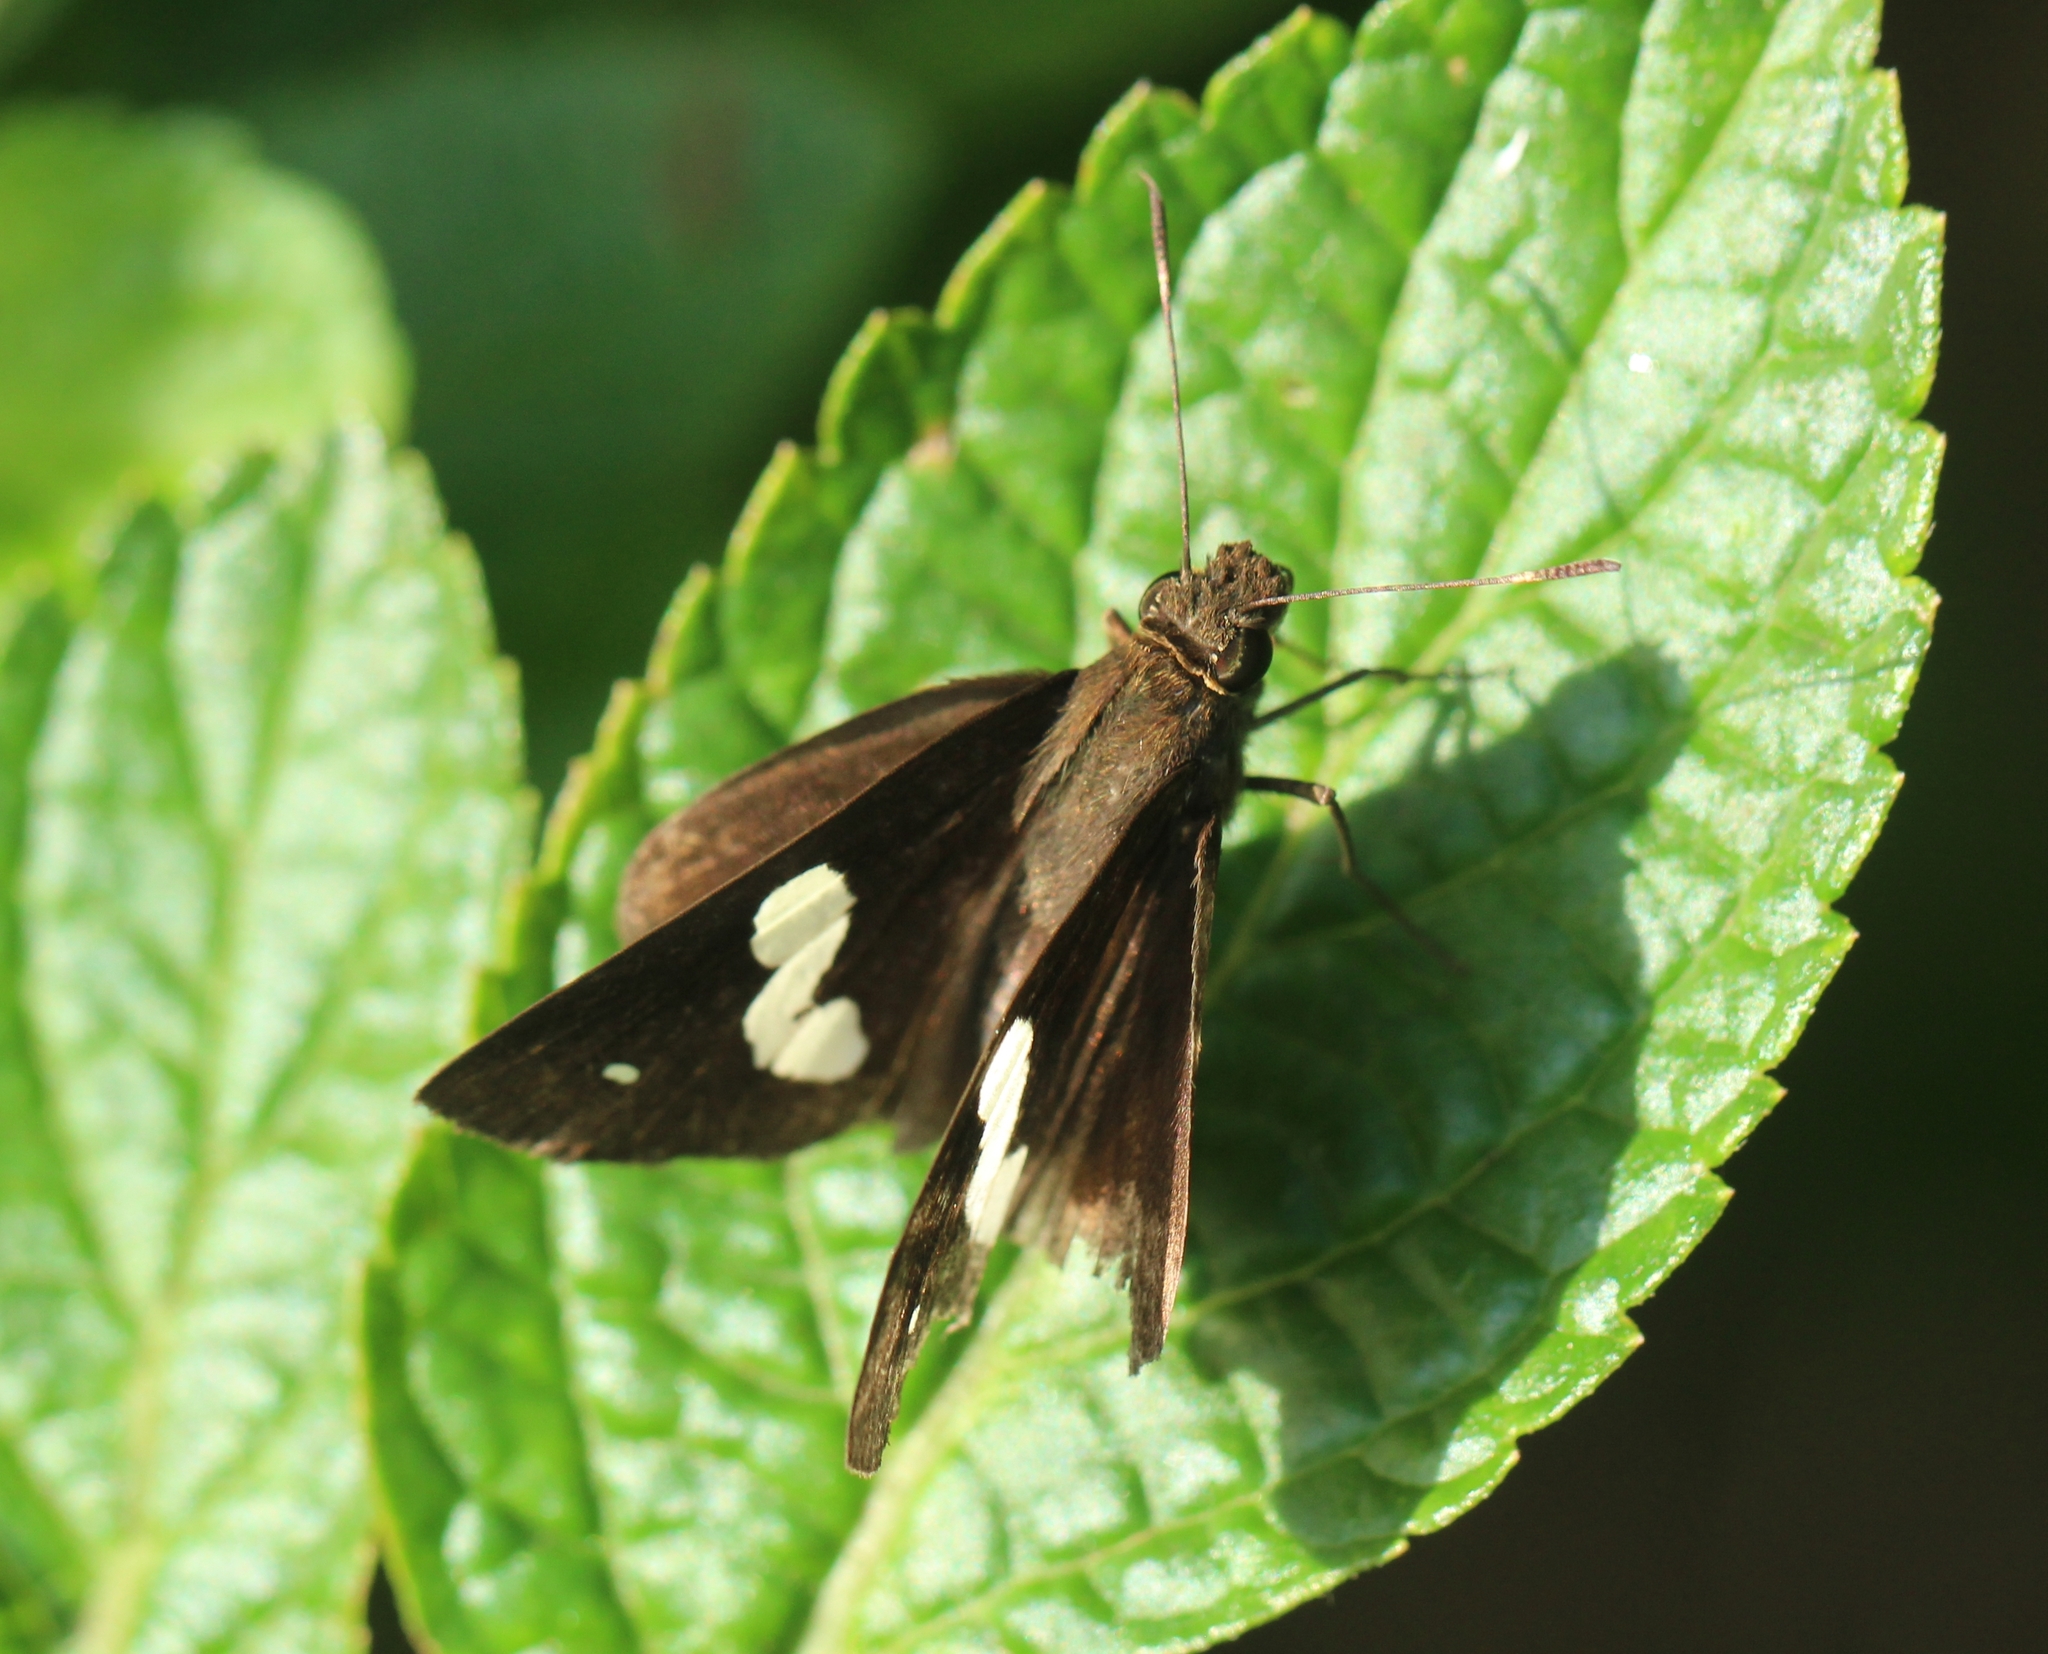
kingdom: Animalia
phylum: Arthropoda
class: Insecta
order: Lepidoptera
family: Hesperiidae
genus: Notocrypta
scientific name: Notocrypta paralysos
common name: Common banded demon
